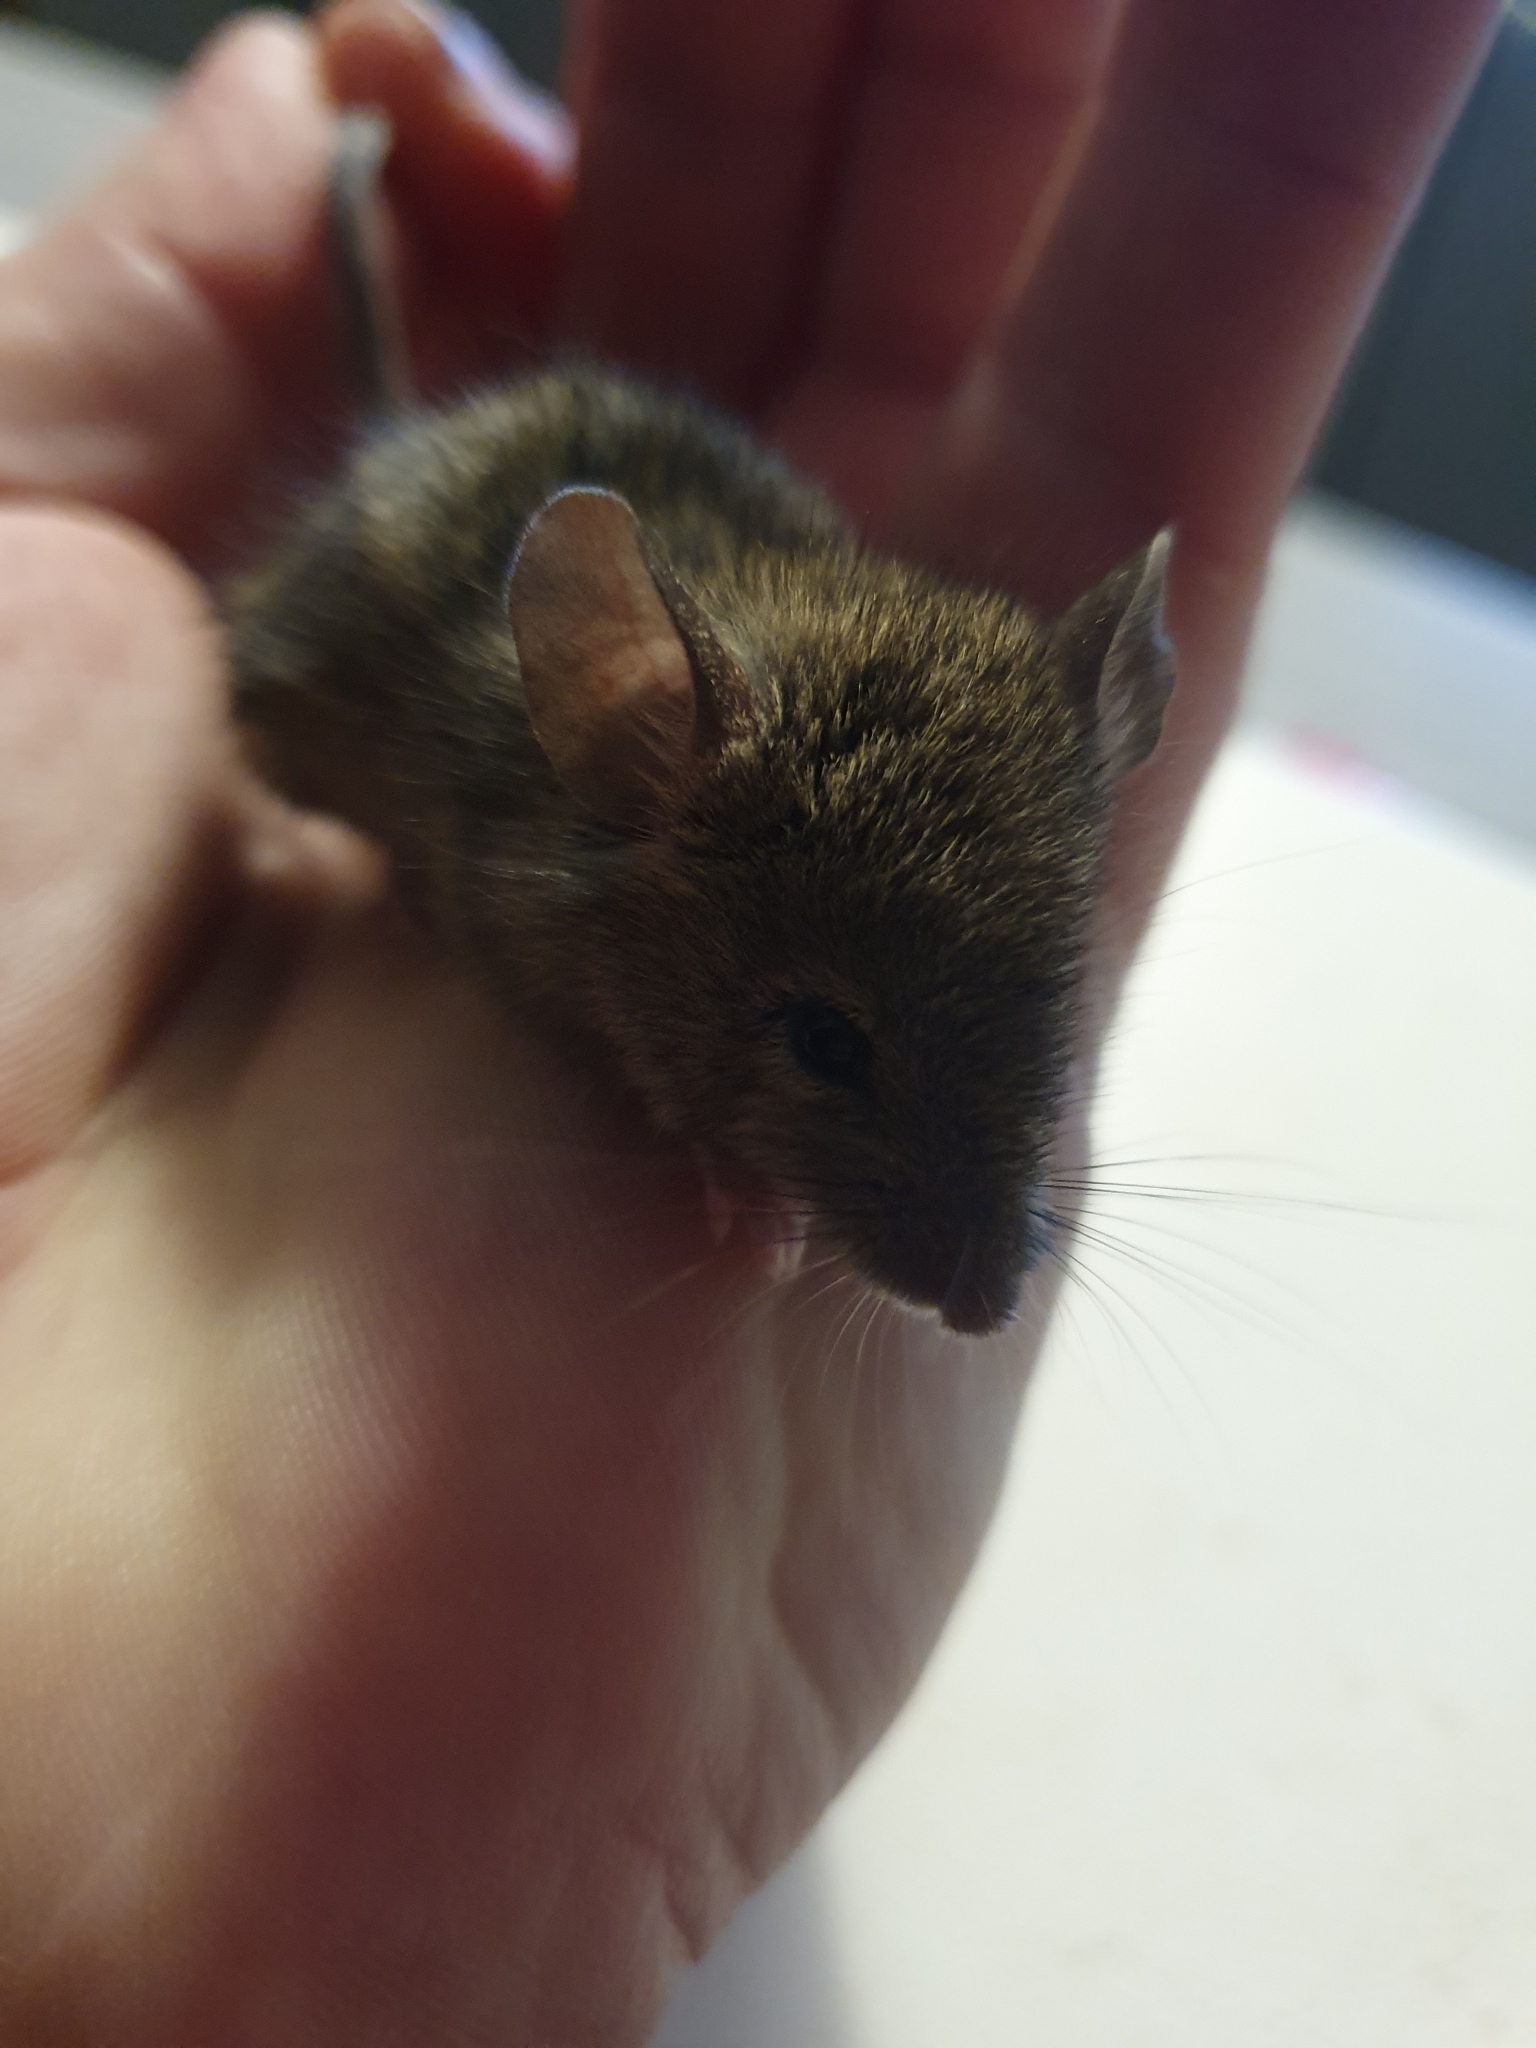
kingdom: Animalia
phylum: Chordata
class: Mammalia
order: Rodentia
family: Muridae
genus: Mus
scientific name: Mus musculus
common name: House mouse
